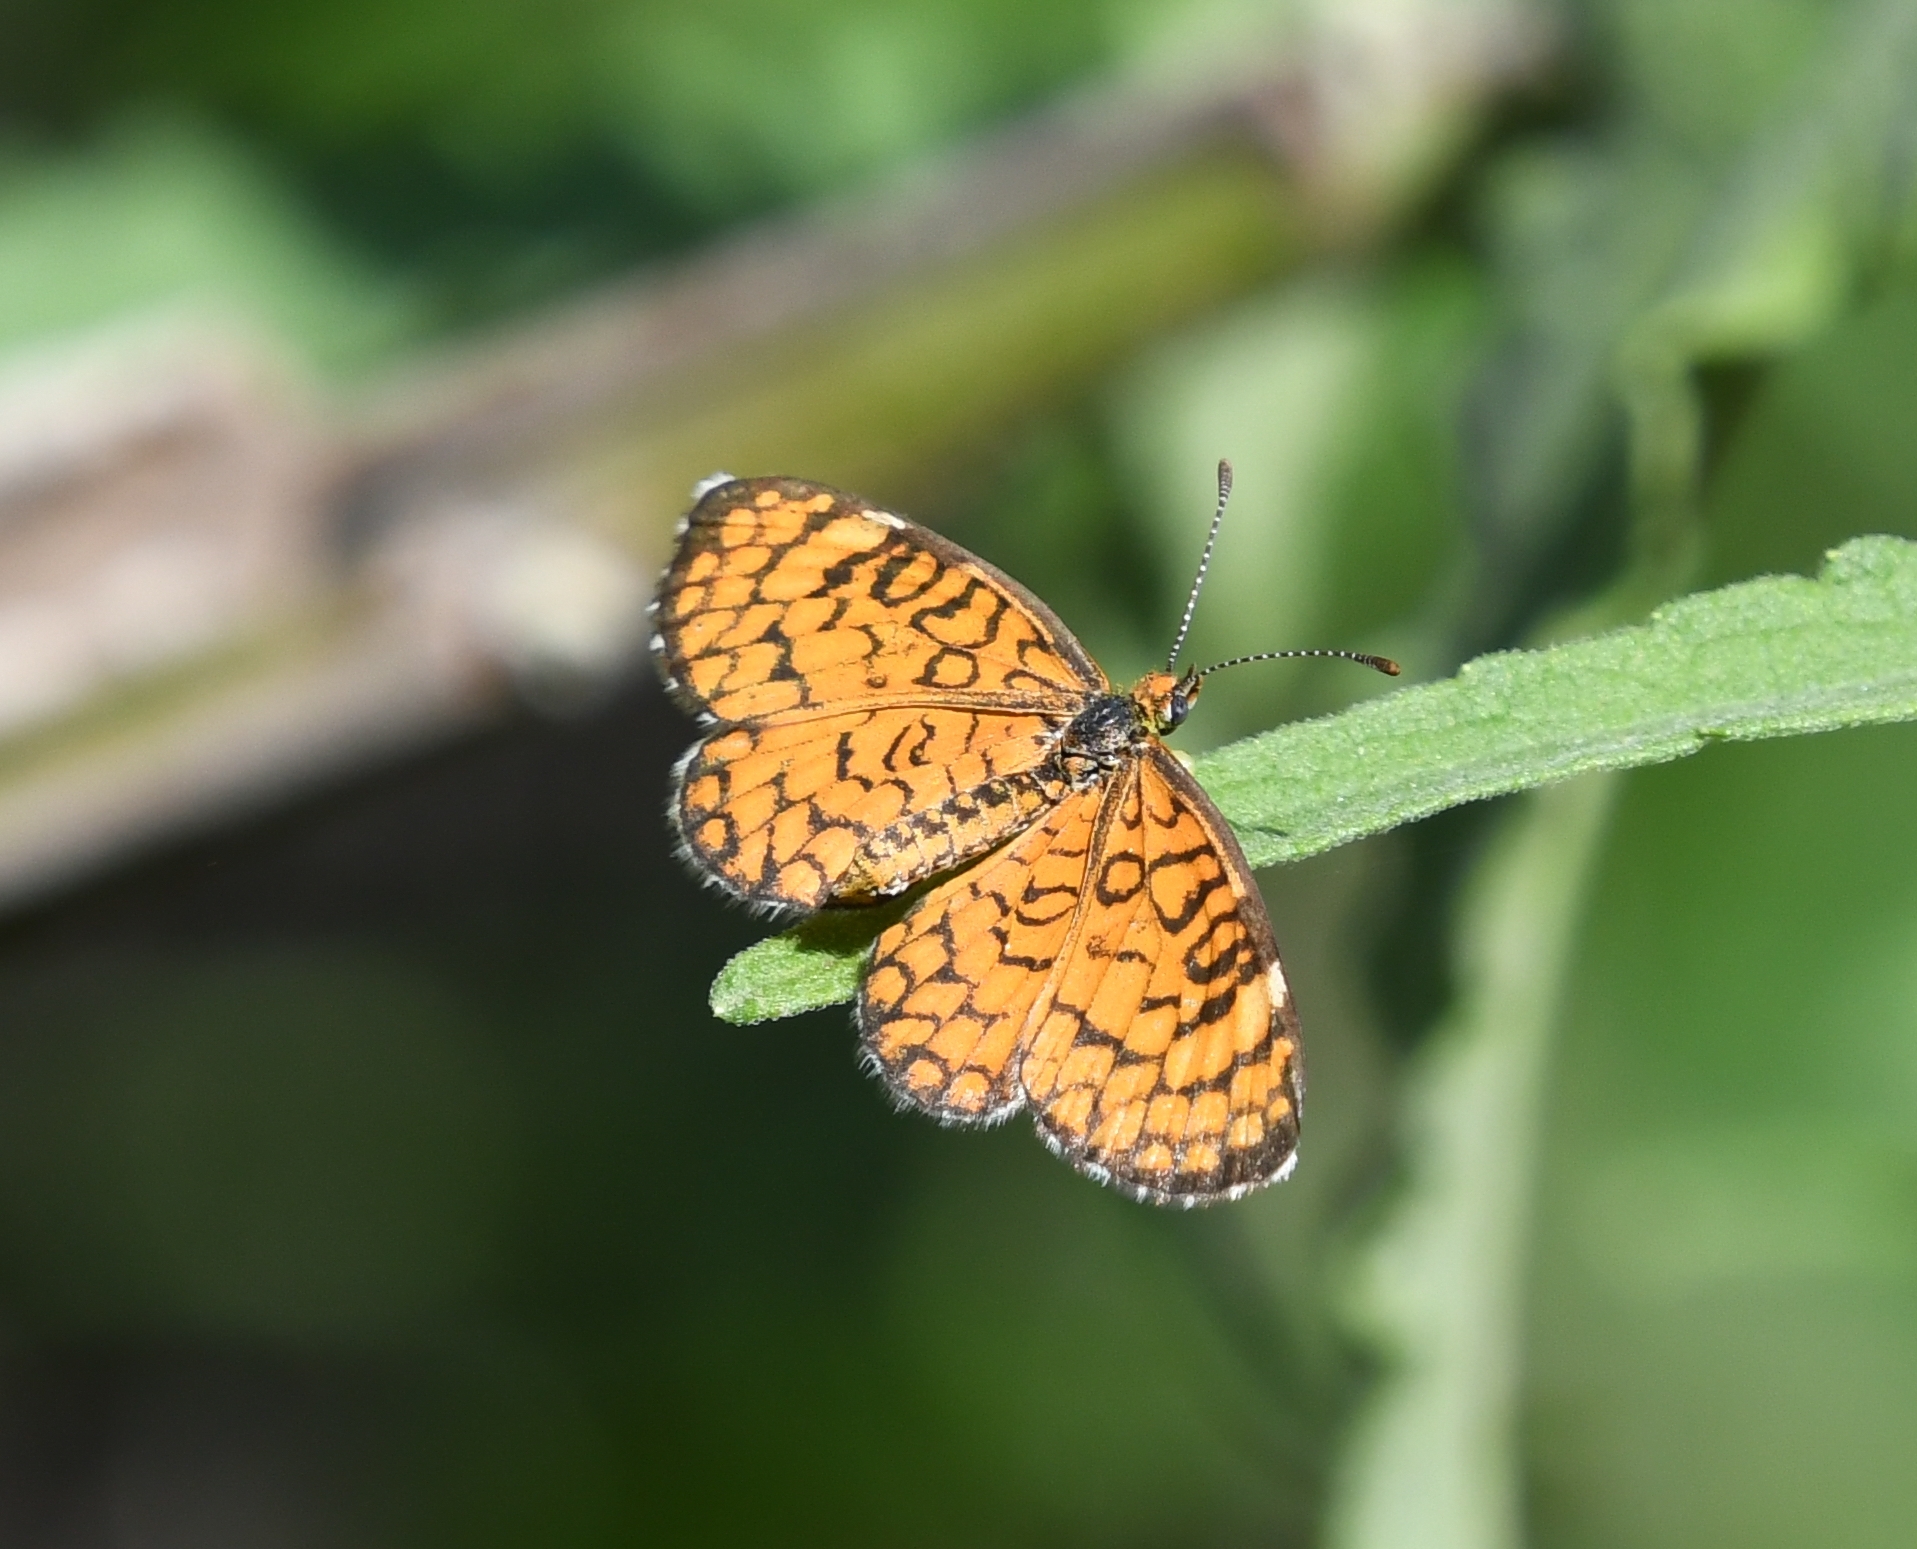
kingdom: Animalia
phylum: Arthropoda
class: Insecta
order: Lepidoptera
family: Nymphalidae
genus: Dymasia
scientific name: Dymasia dymas
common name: Tiny checkerspot
